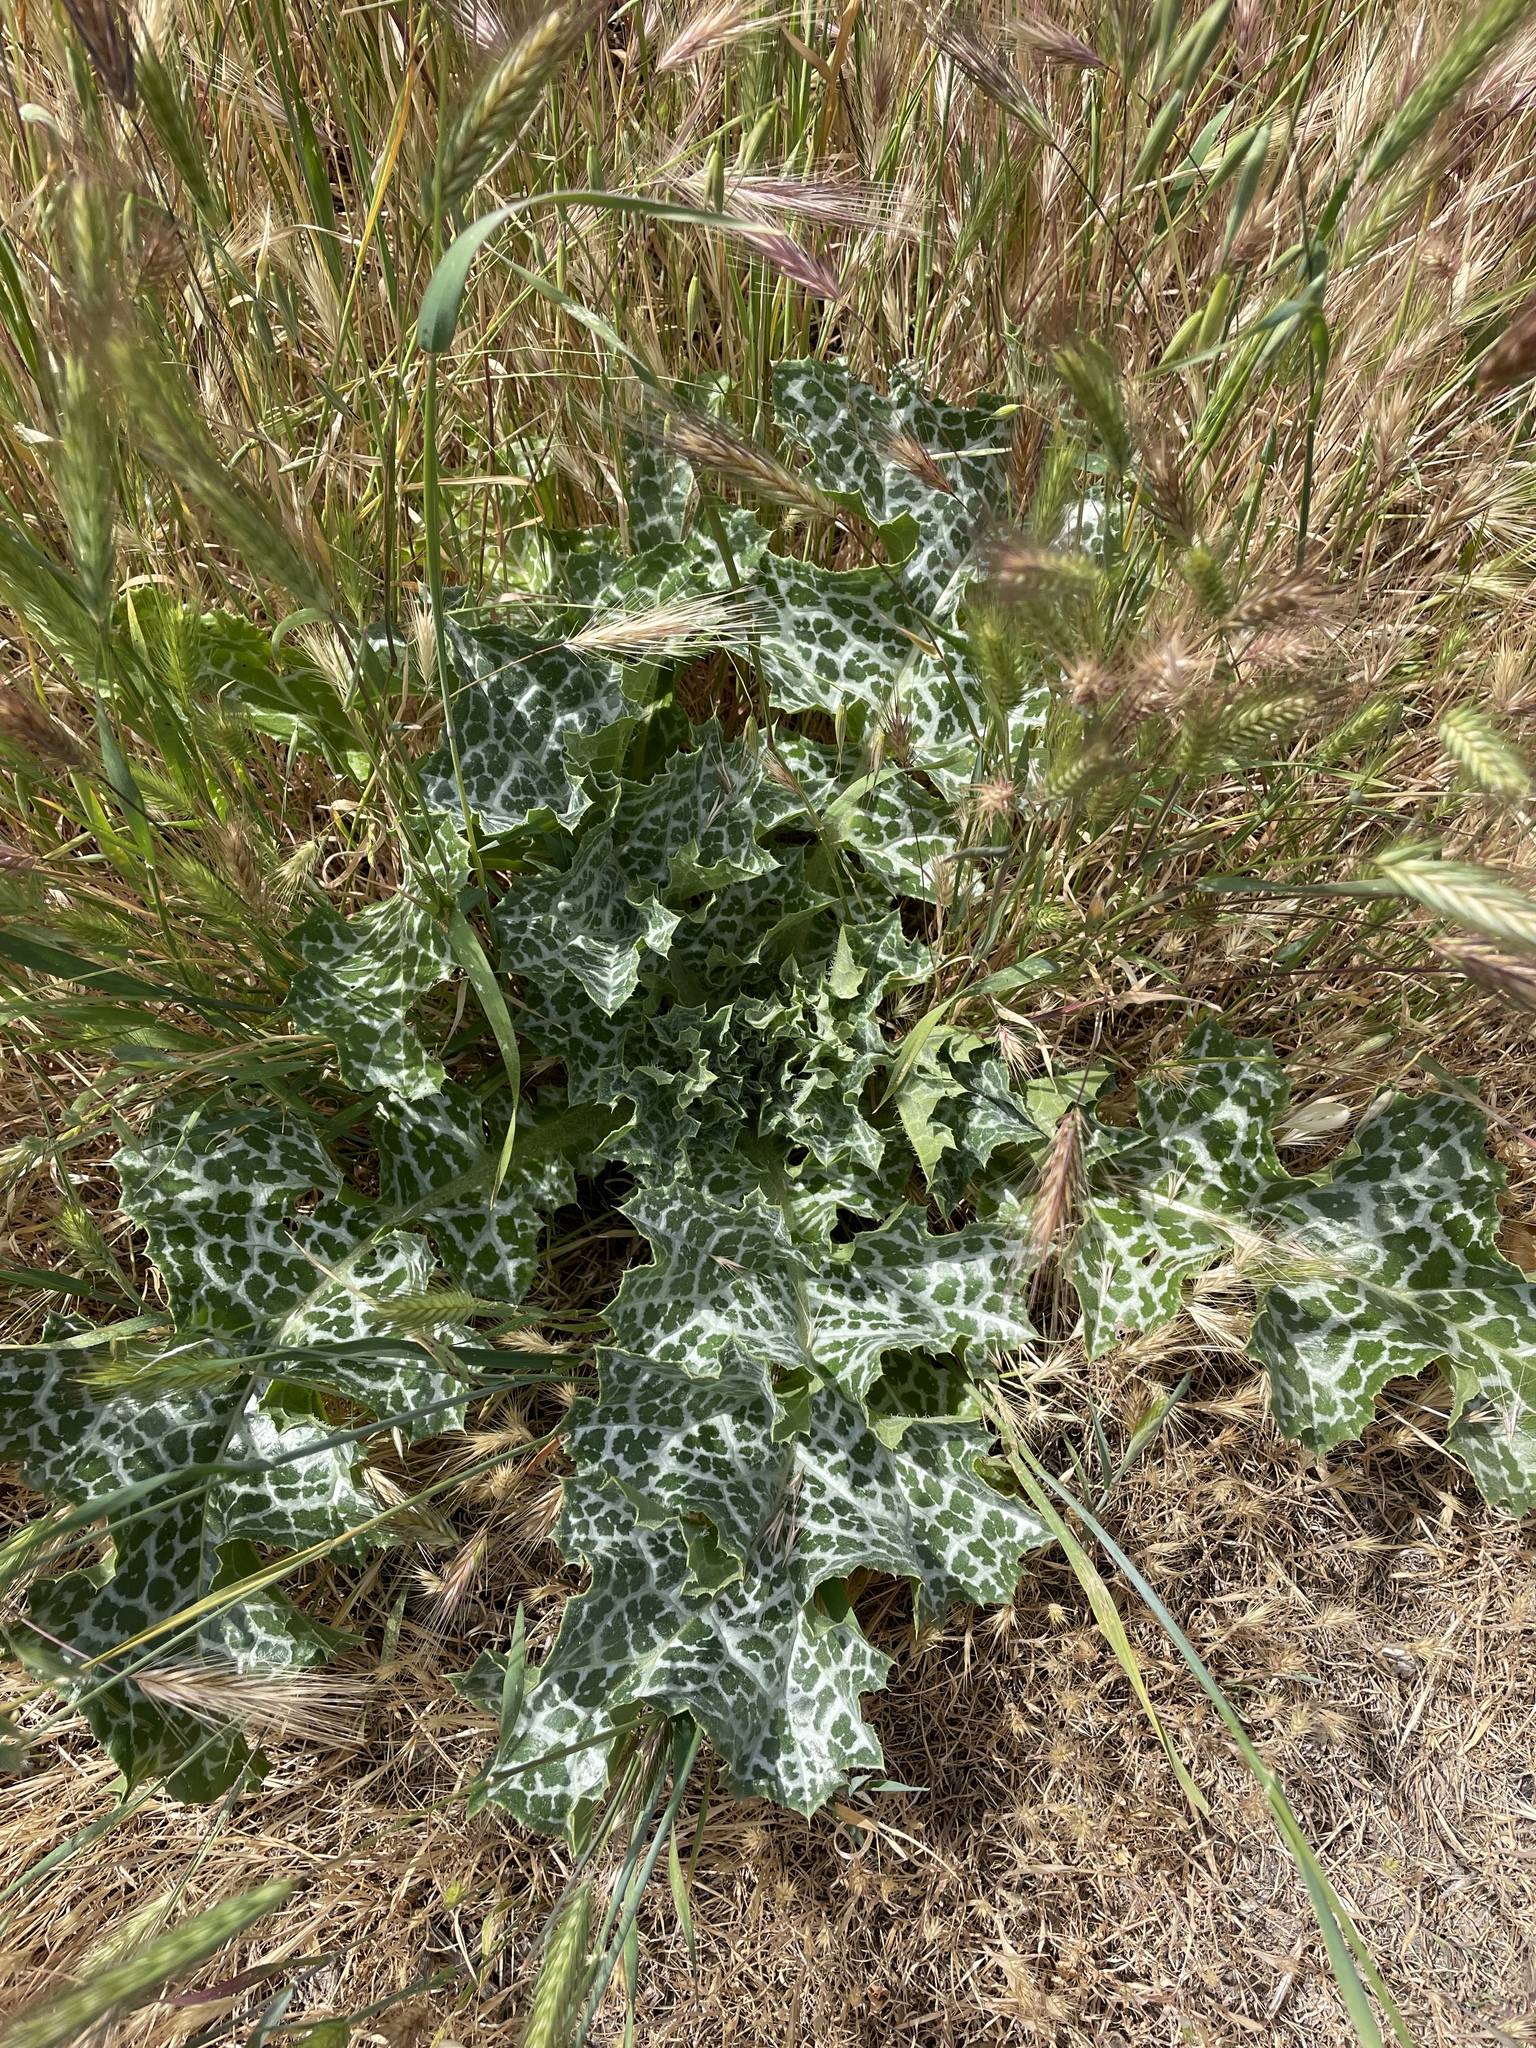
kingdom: Plantae
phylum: Tracheophyta
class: Magnoliopsida
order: Asterales
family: Asteraceae
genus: Silybum
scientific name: Silybum marianum
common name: Milk thistle
